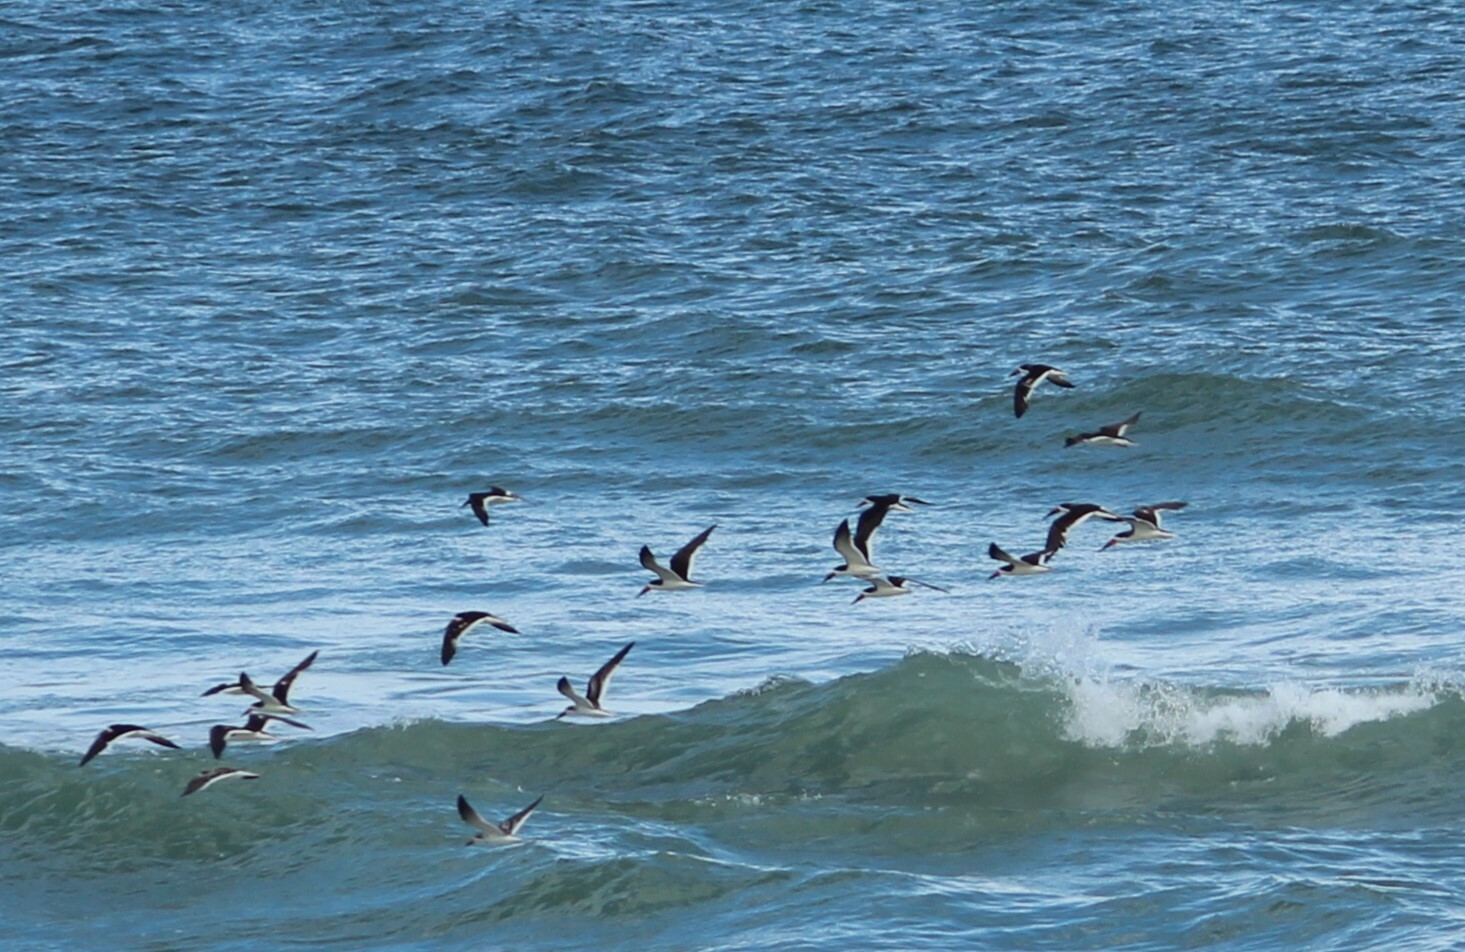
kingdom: Animalia
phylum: Chordata
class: Aves
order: Charadriiformes
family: Laridae
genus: Rynchops
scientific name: Rynchops niger
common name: Black skimmer
